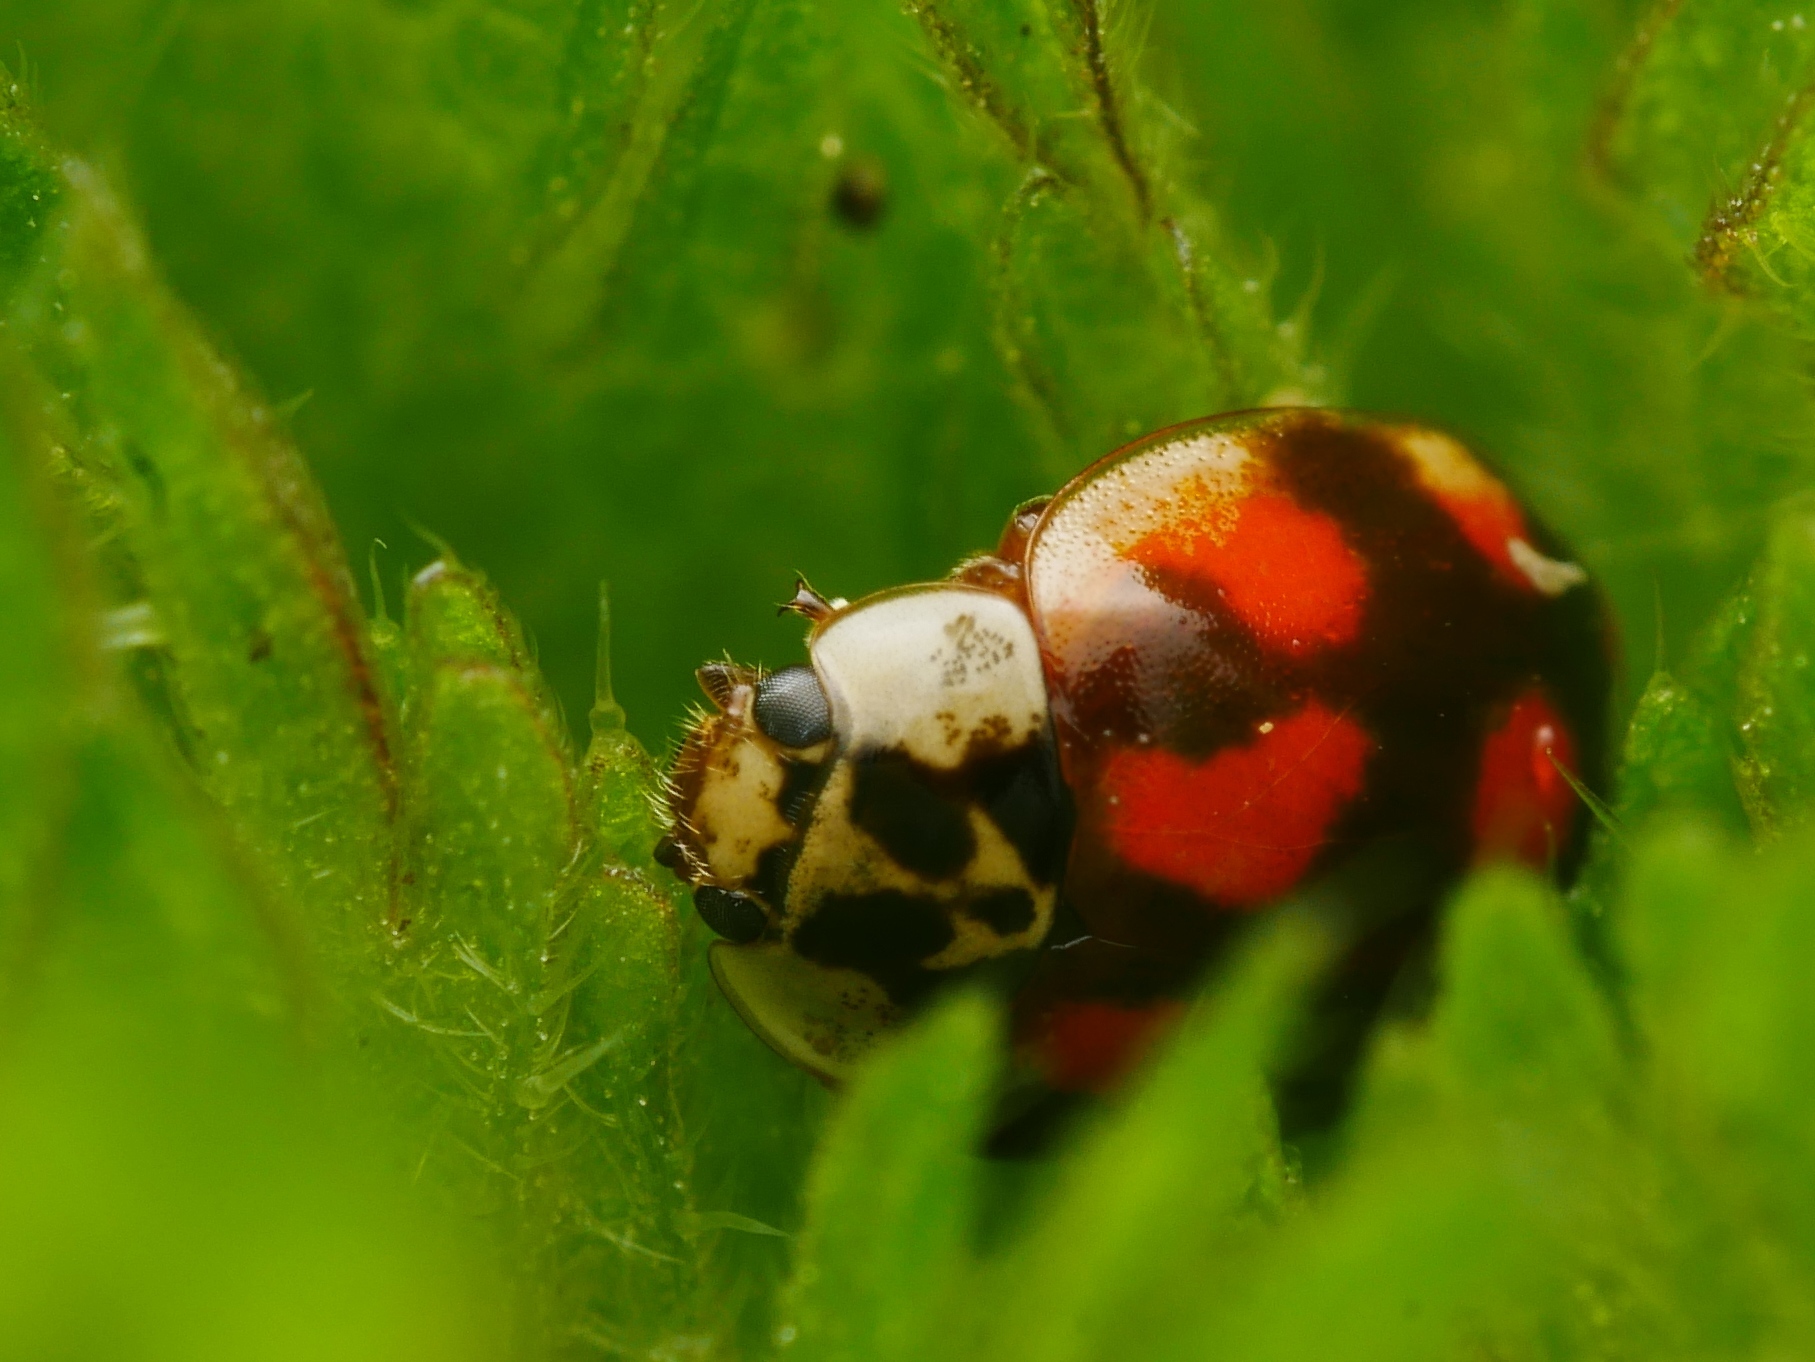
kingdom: Animalia
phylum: Arthropoda
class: Insecta
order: Coleoptera
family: Coccinellidae
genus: Adalia
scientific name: Adalia decempunctata
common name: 10-spot ladybird
